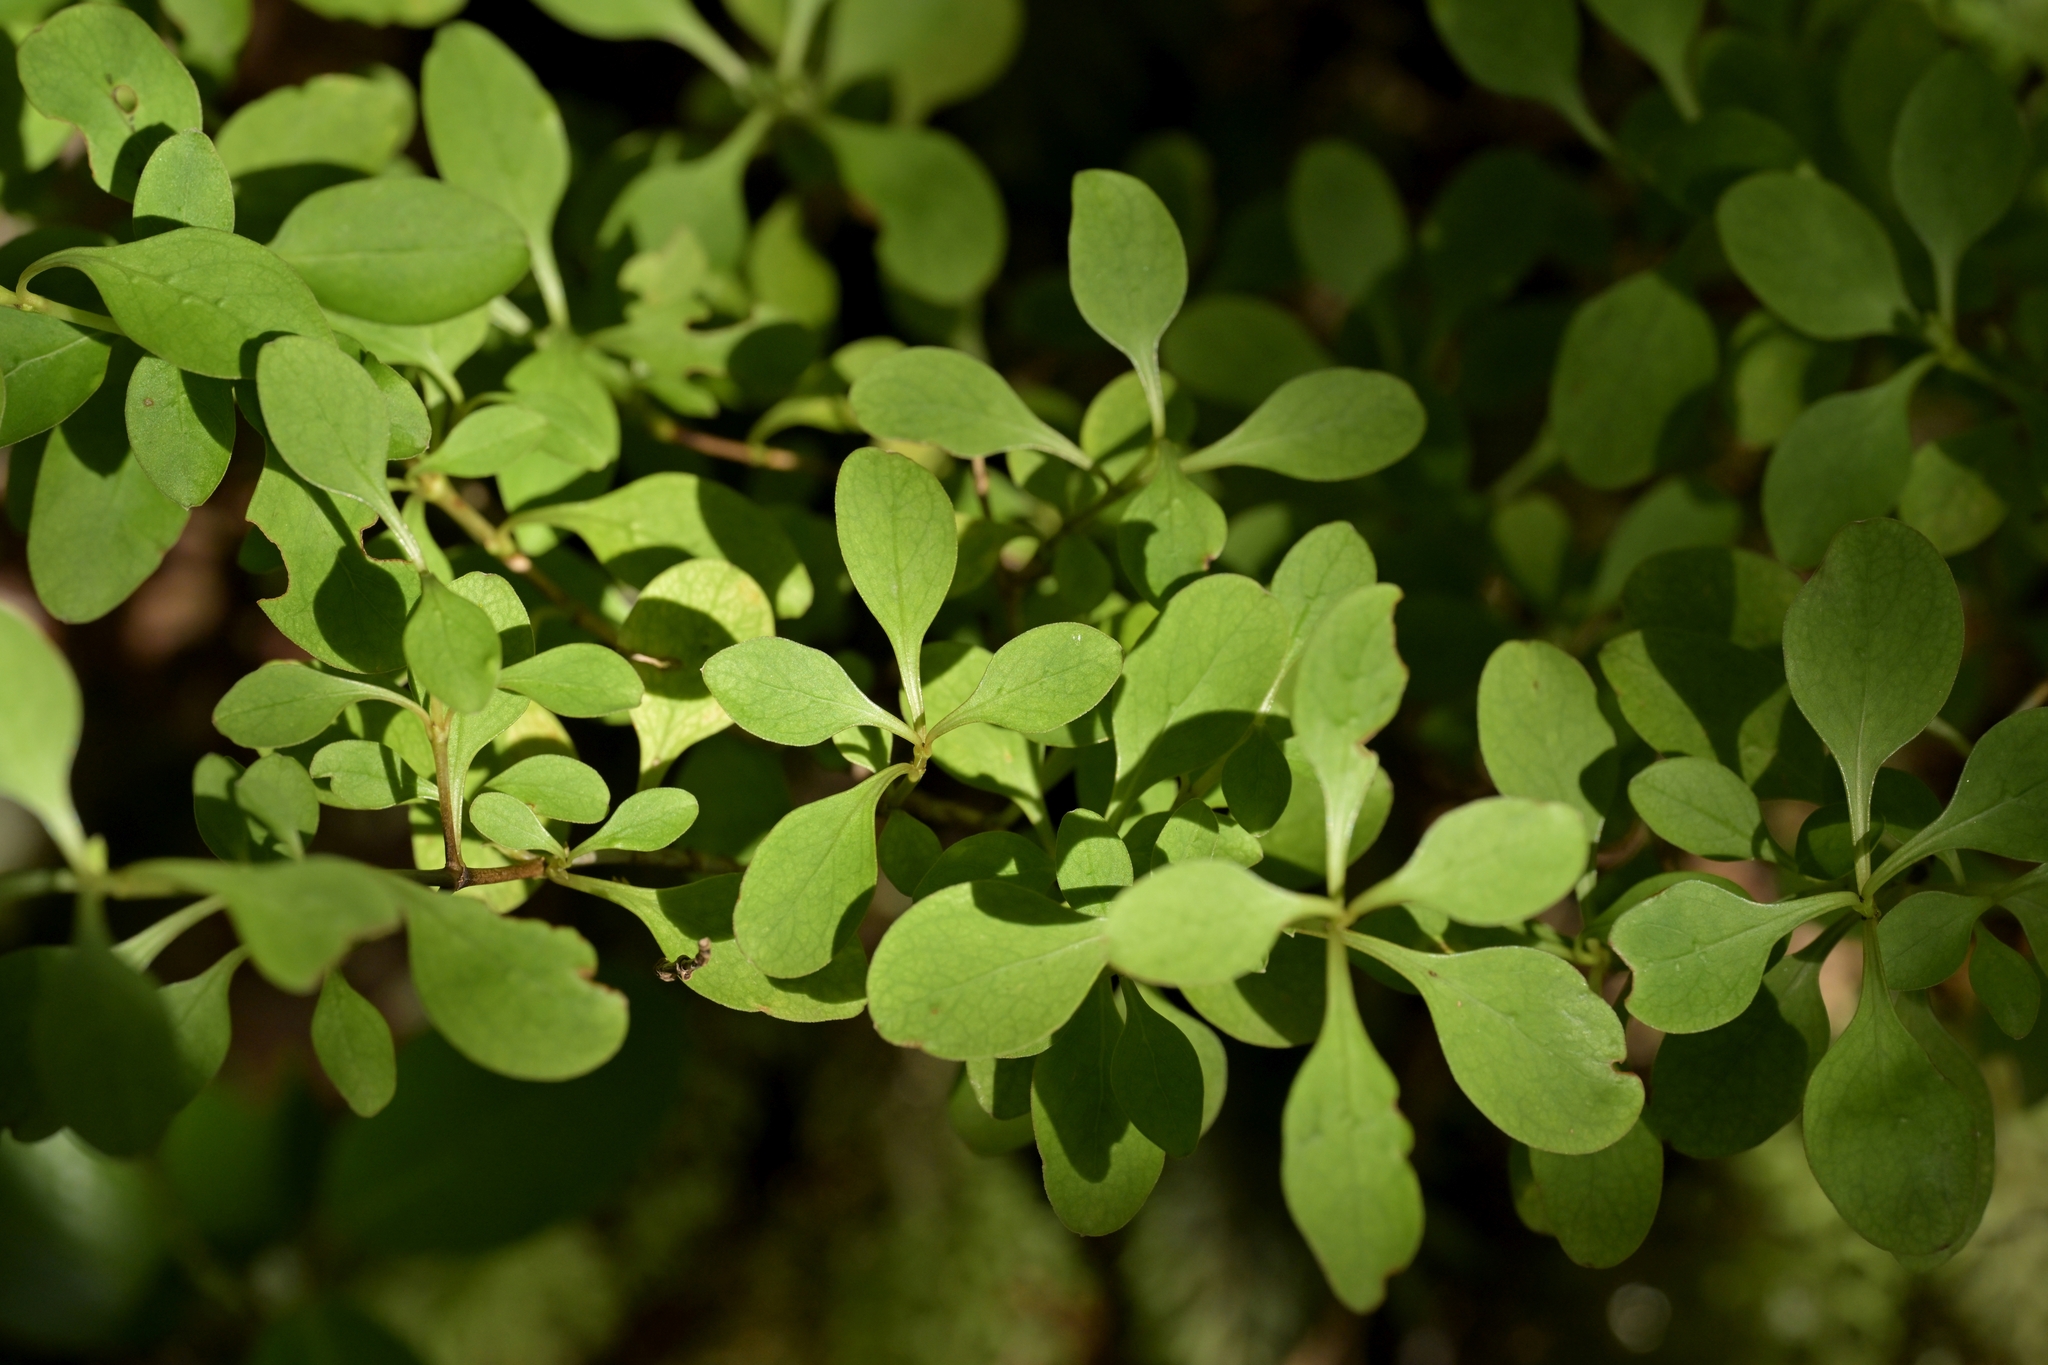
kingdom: Plantae
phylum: Tracheophyta
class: Magnoliopsida
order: Gentianales
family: Rubiaceae
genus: Coprosma
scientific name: Coprosma foetidissima
